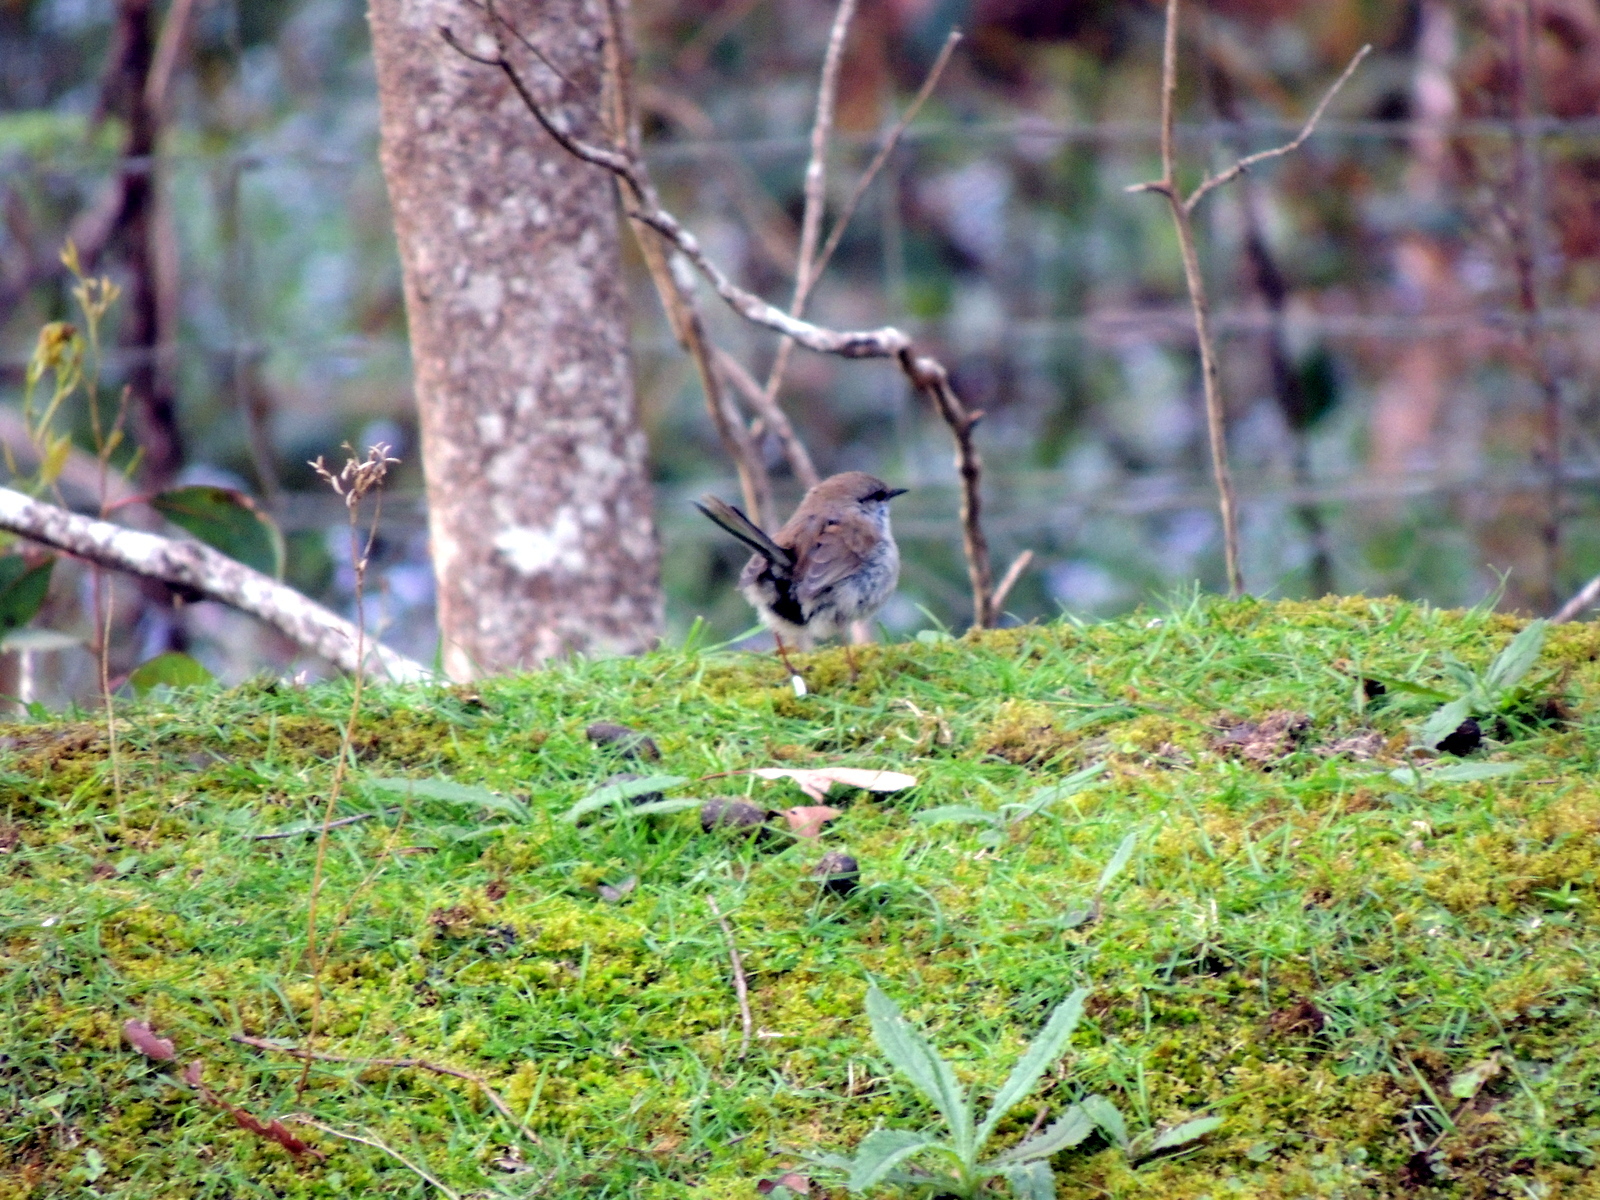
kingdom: Animalia
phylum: Chordata
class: Aves
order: Passeriformes
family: Maluridae
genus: Malurus
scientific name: Malurus cyaneus
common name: Superb fairywren
